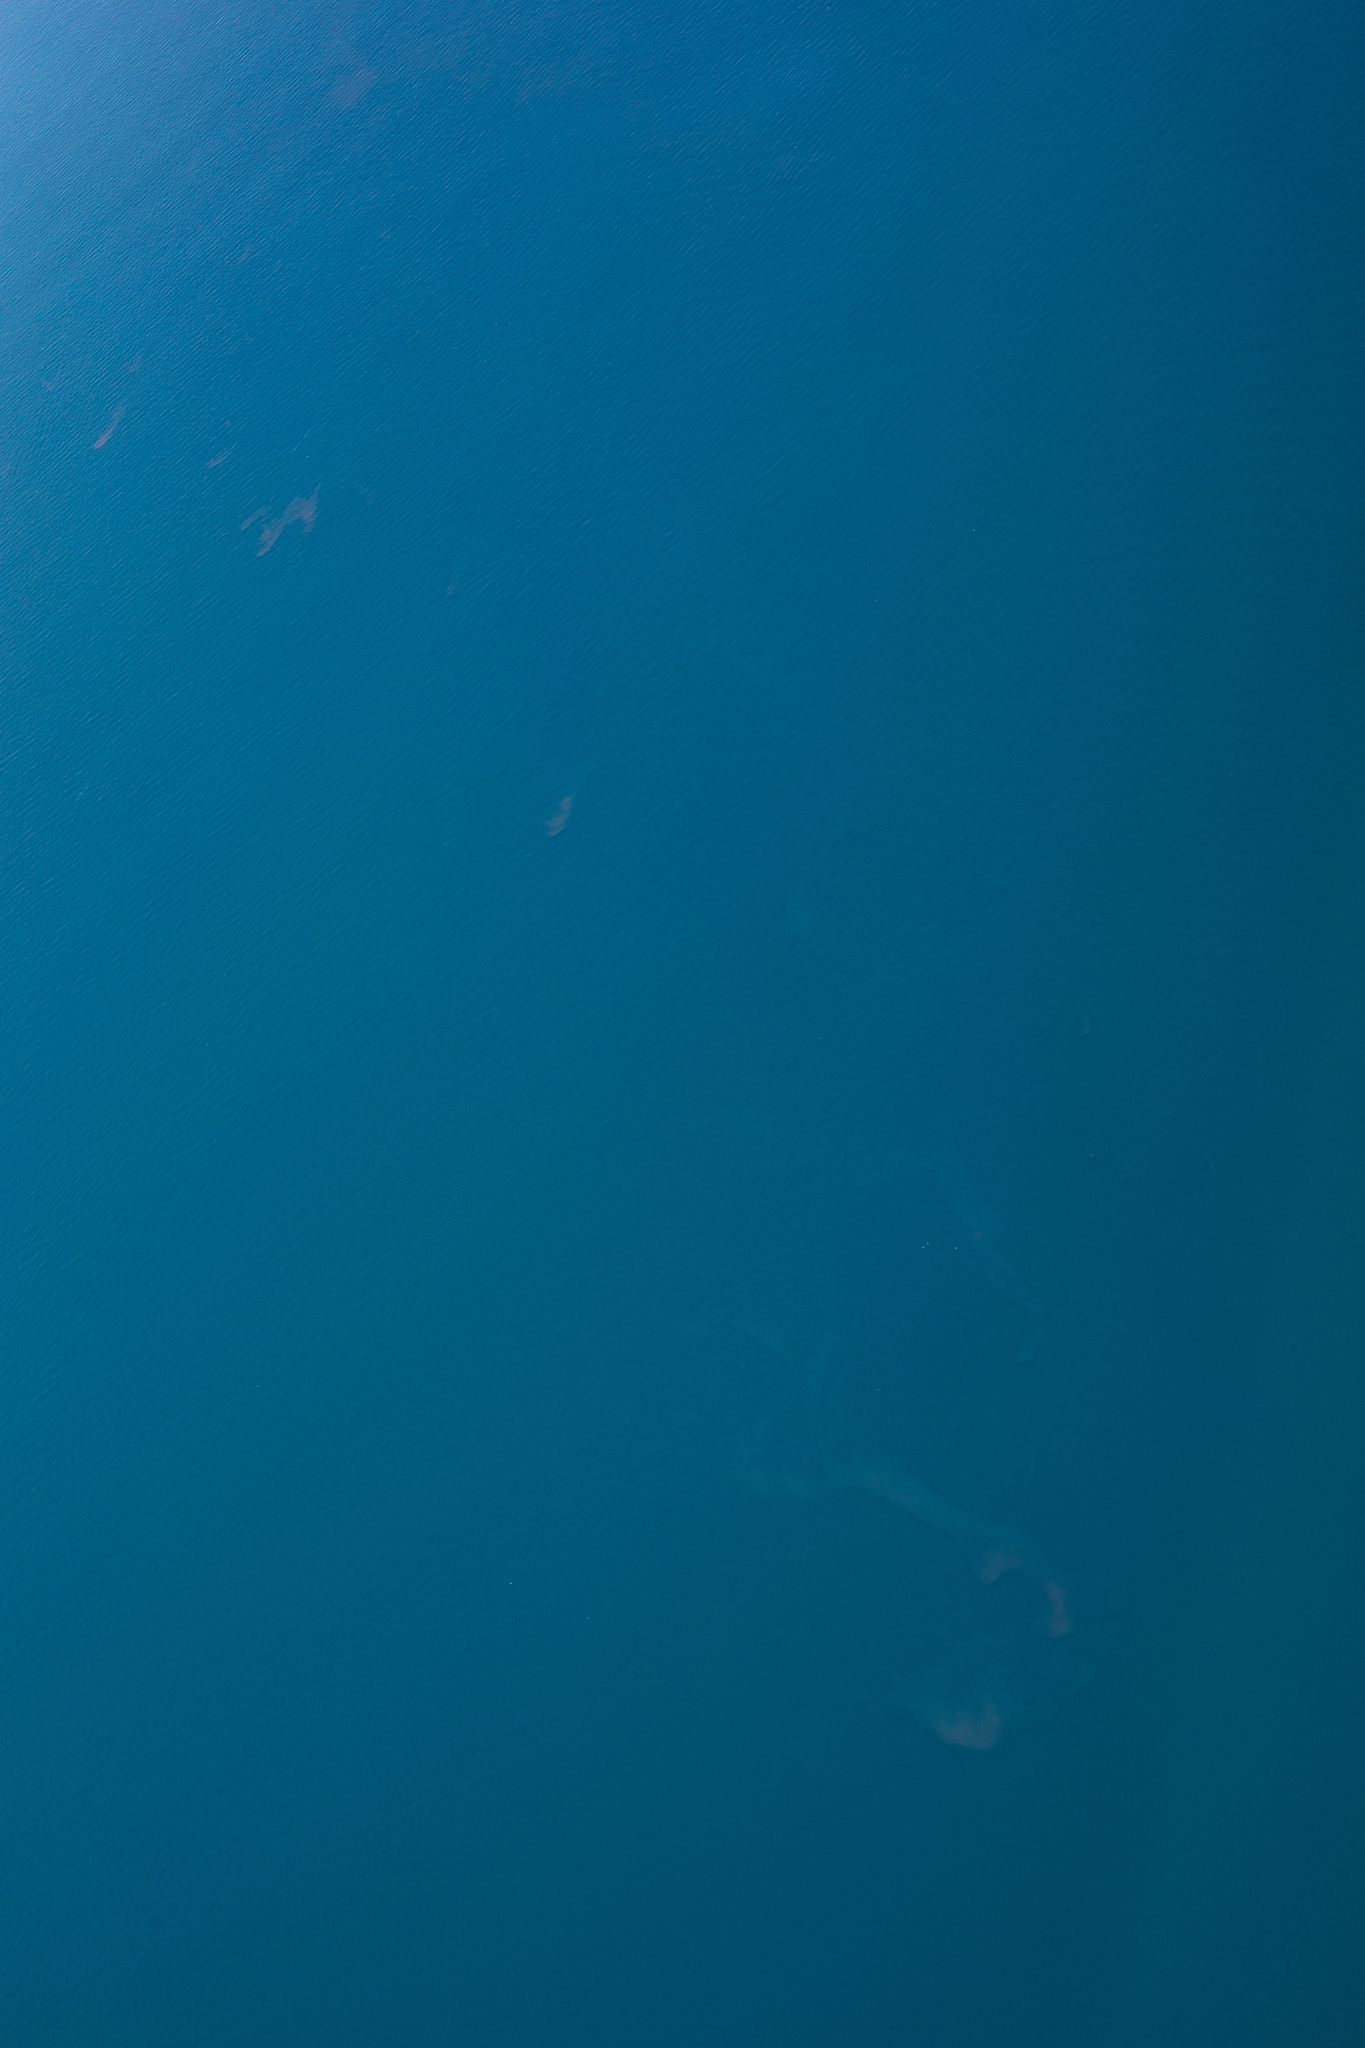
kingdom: Chromista
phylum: Myzozoa
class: Dinophyceae
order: Noctilucales
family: Noctilucaceae
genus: Noctiluca
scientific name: Noctiluca scintillans
